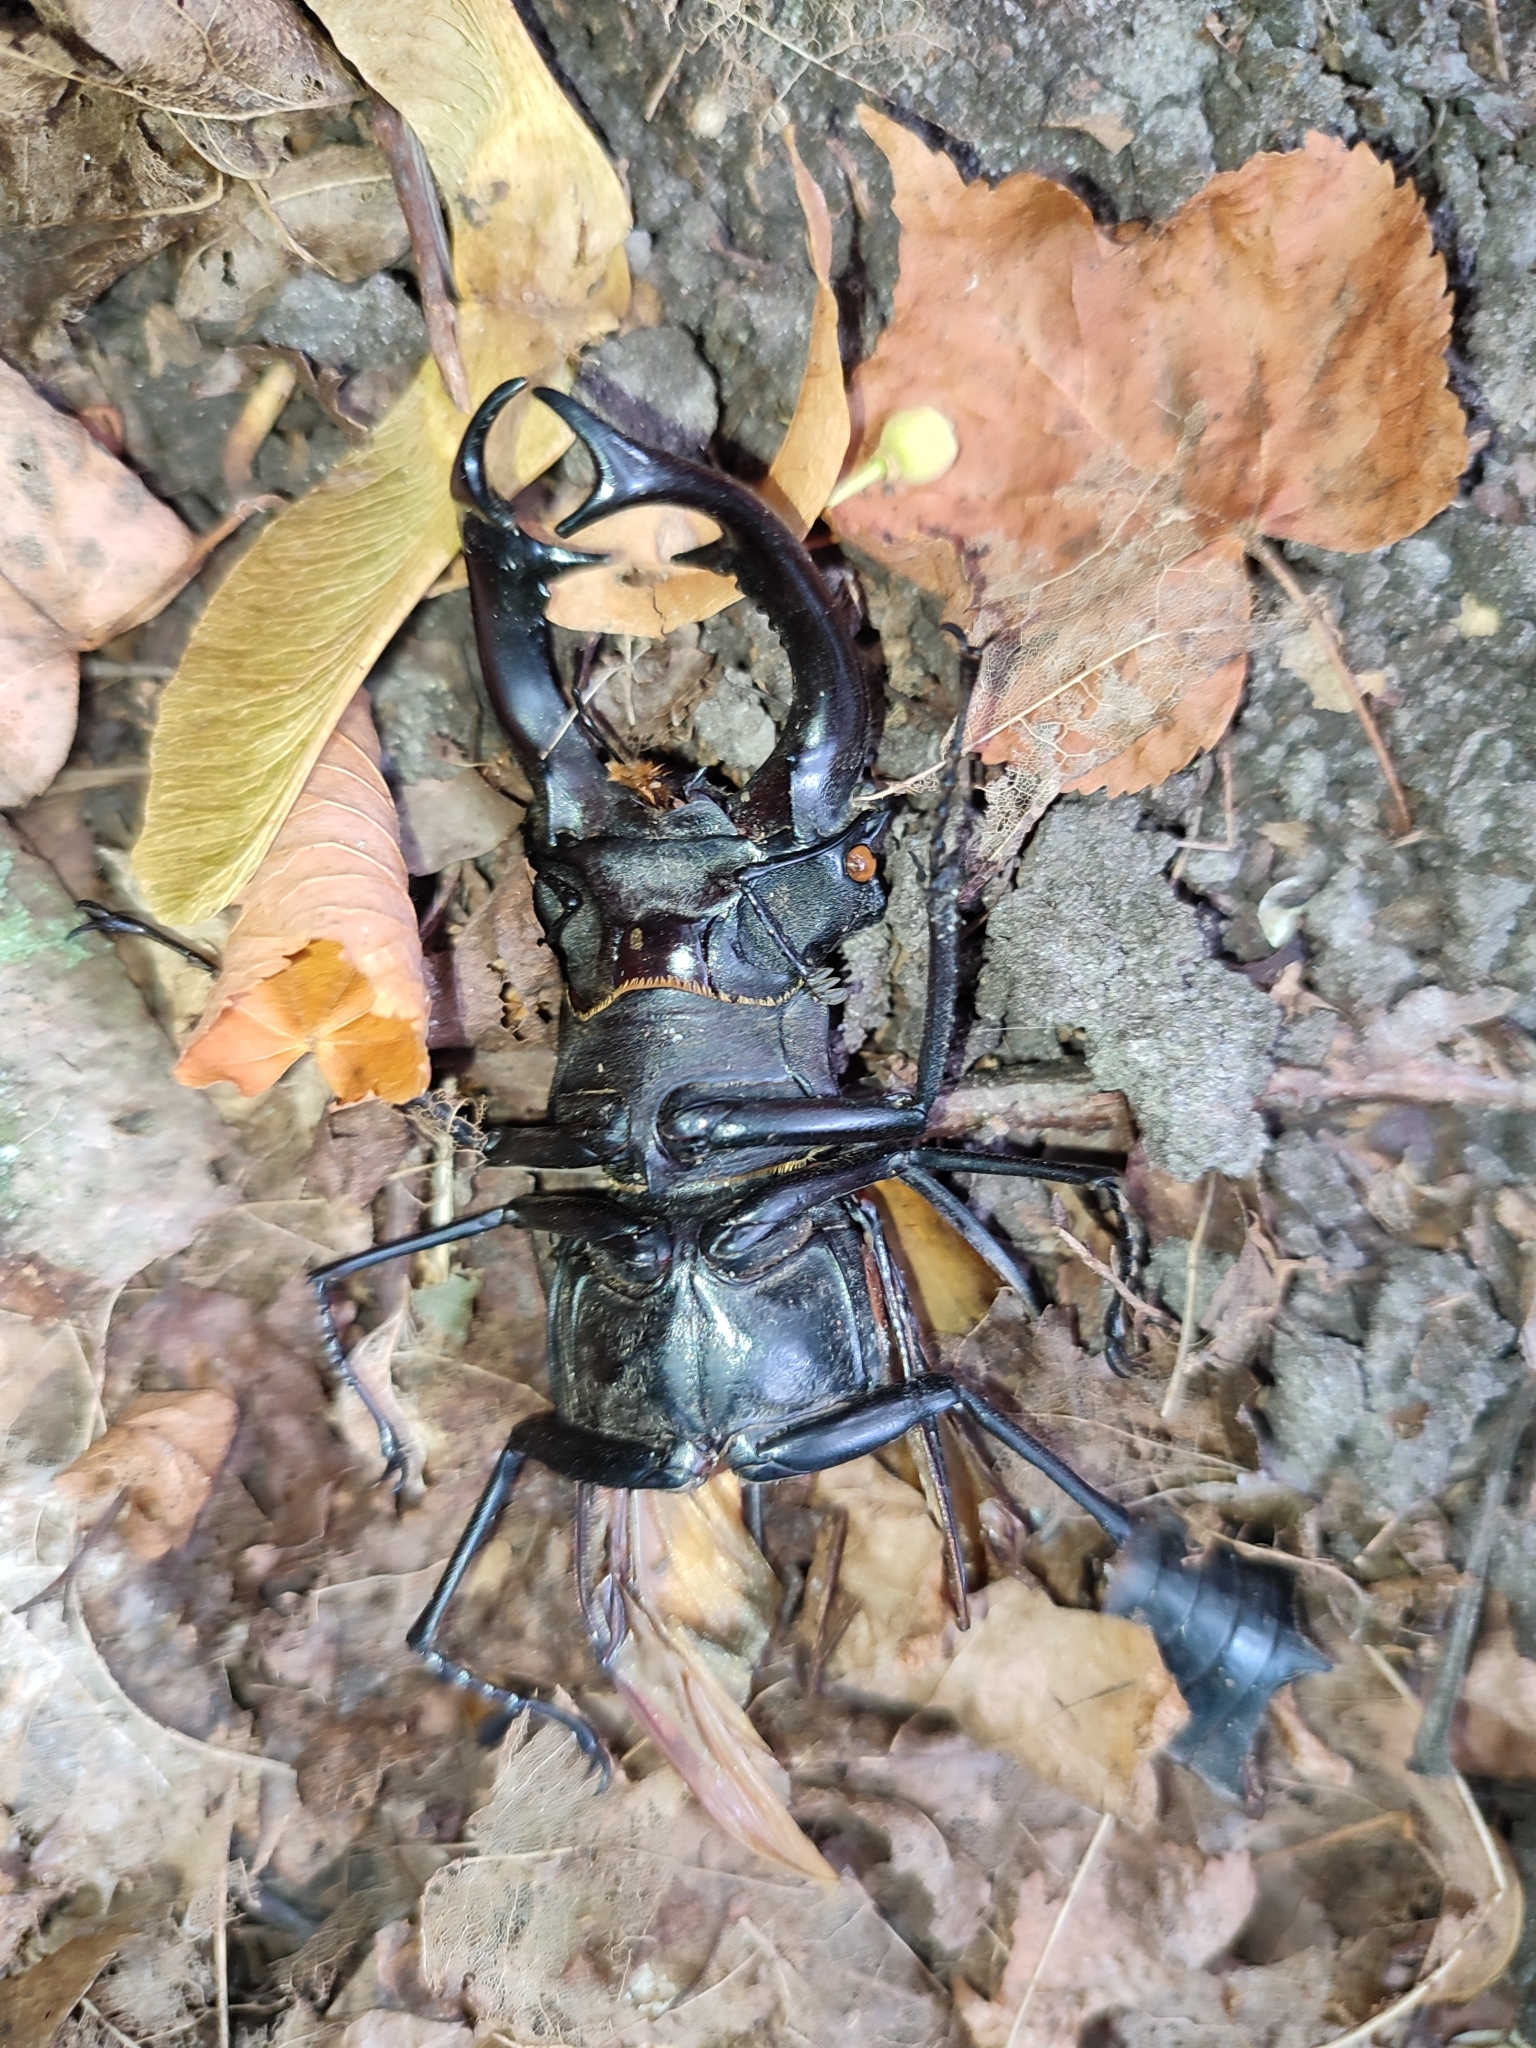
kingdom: Animalia
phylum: Arthropoda
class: Insecta
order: Coleoptera
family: Lucanidae
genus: Lucanus
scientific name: Lucanus cervus
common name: Stag beetle
